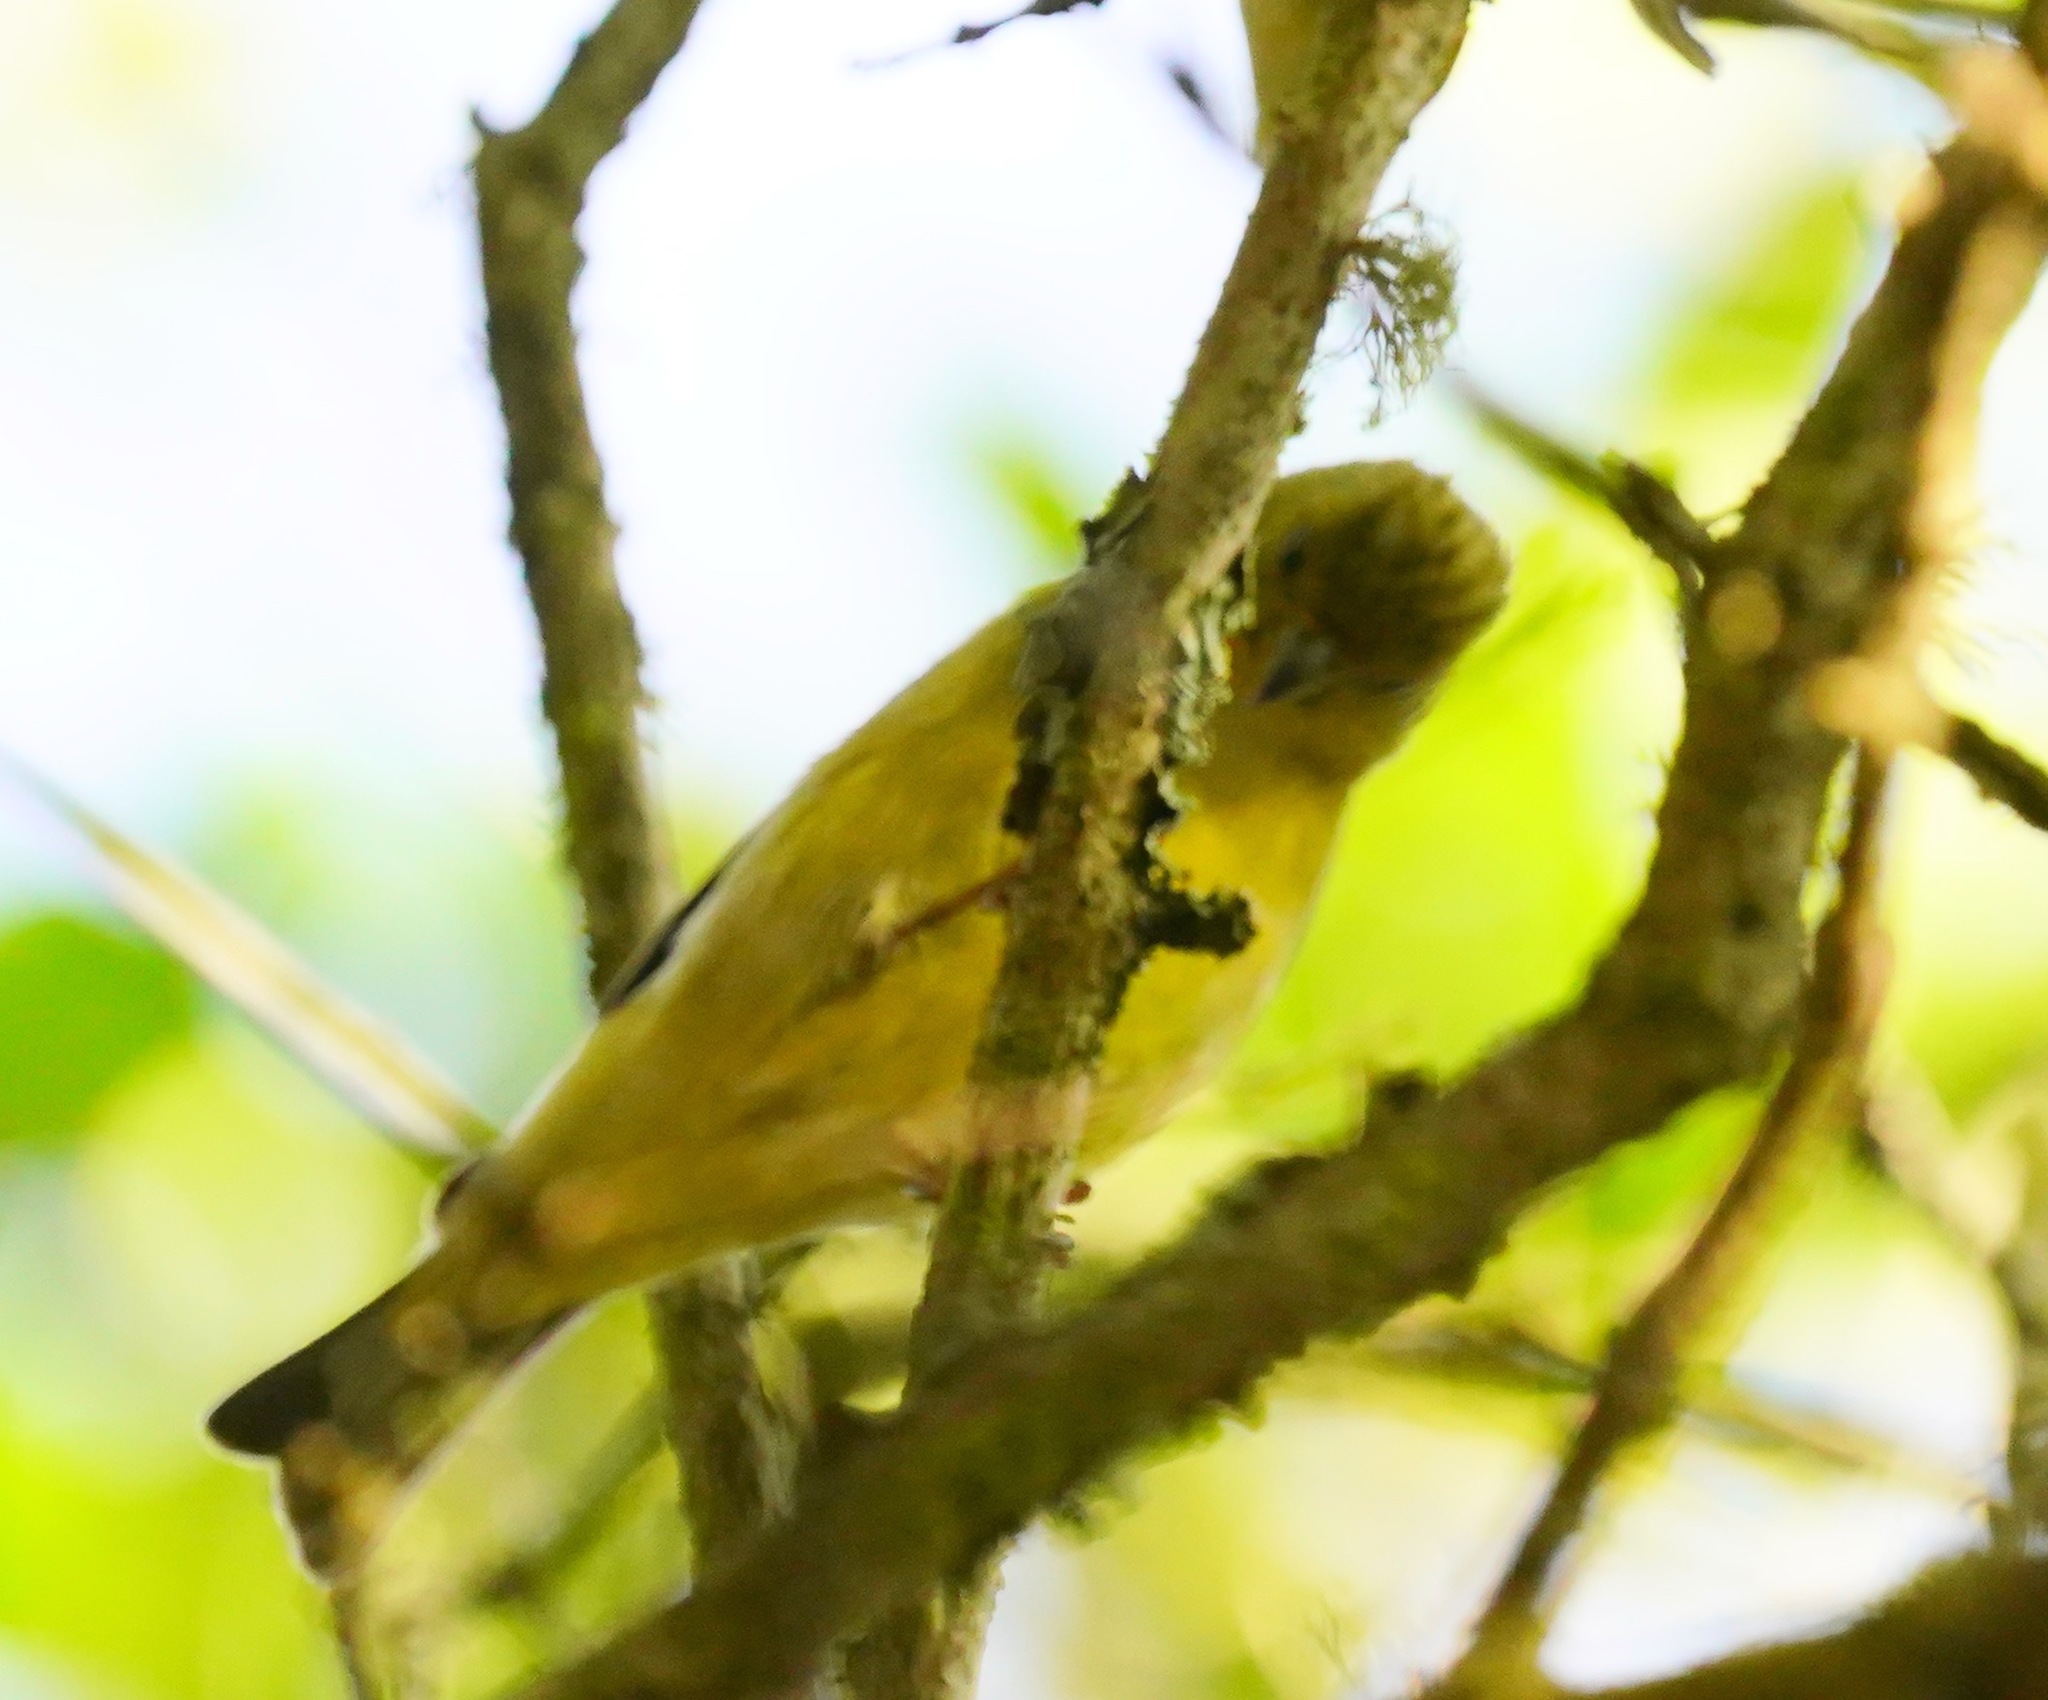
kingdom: Animalia
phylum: Chordata
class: Aves
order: Passeriformes
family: Fringillidae
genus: Spinus
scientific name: Spinus psaltria
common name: Lesser goldfinch
